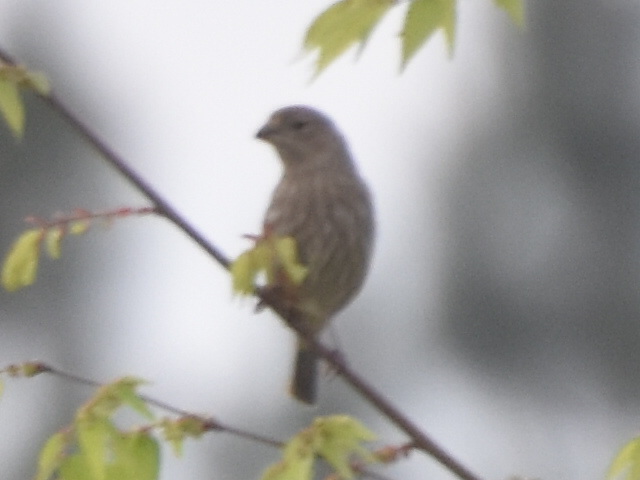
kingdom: Animalia
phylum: Chordata
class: Aves
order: Passeriformes
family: Fringillidae
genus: Haemorhous
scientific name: Haemorhous mexicanus
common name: House finch
